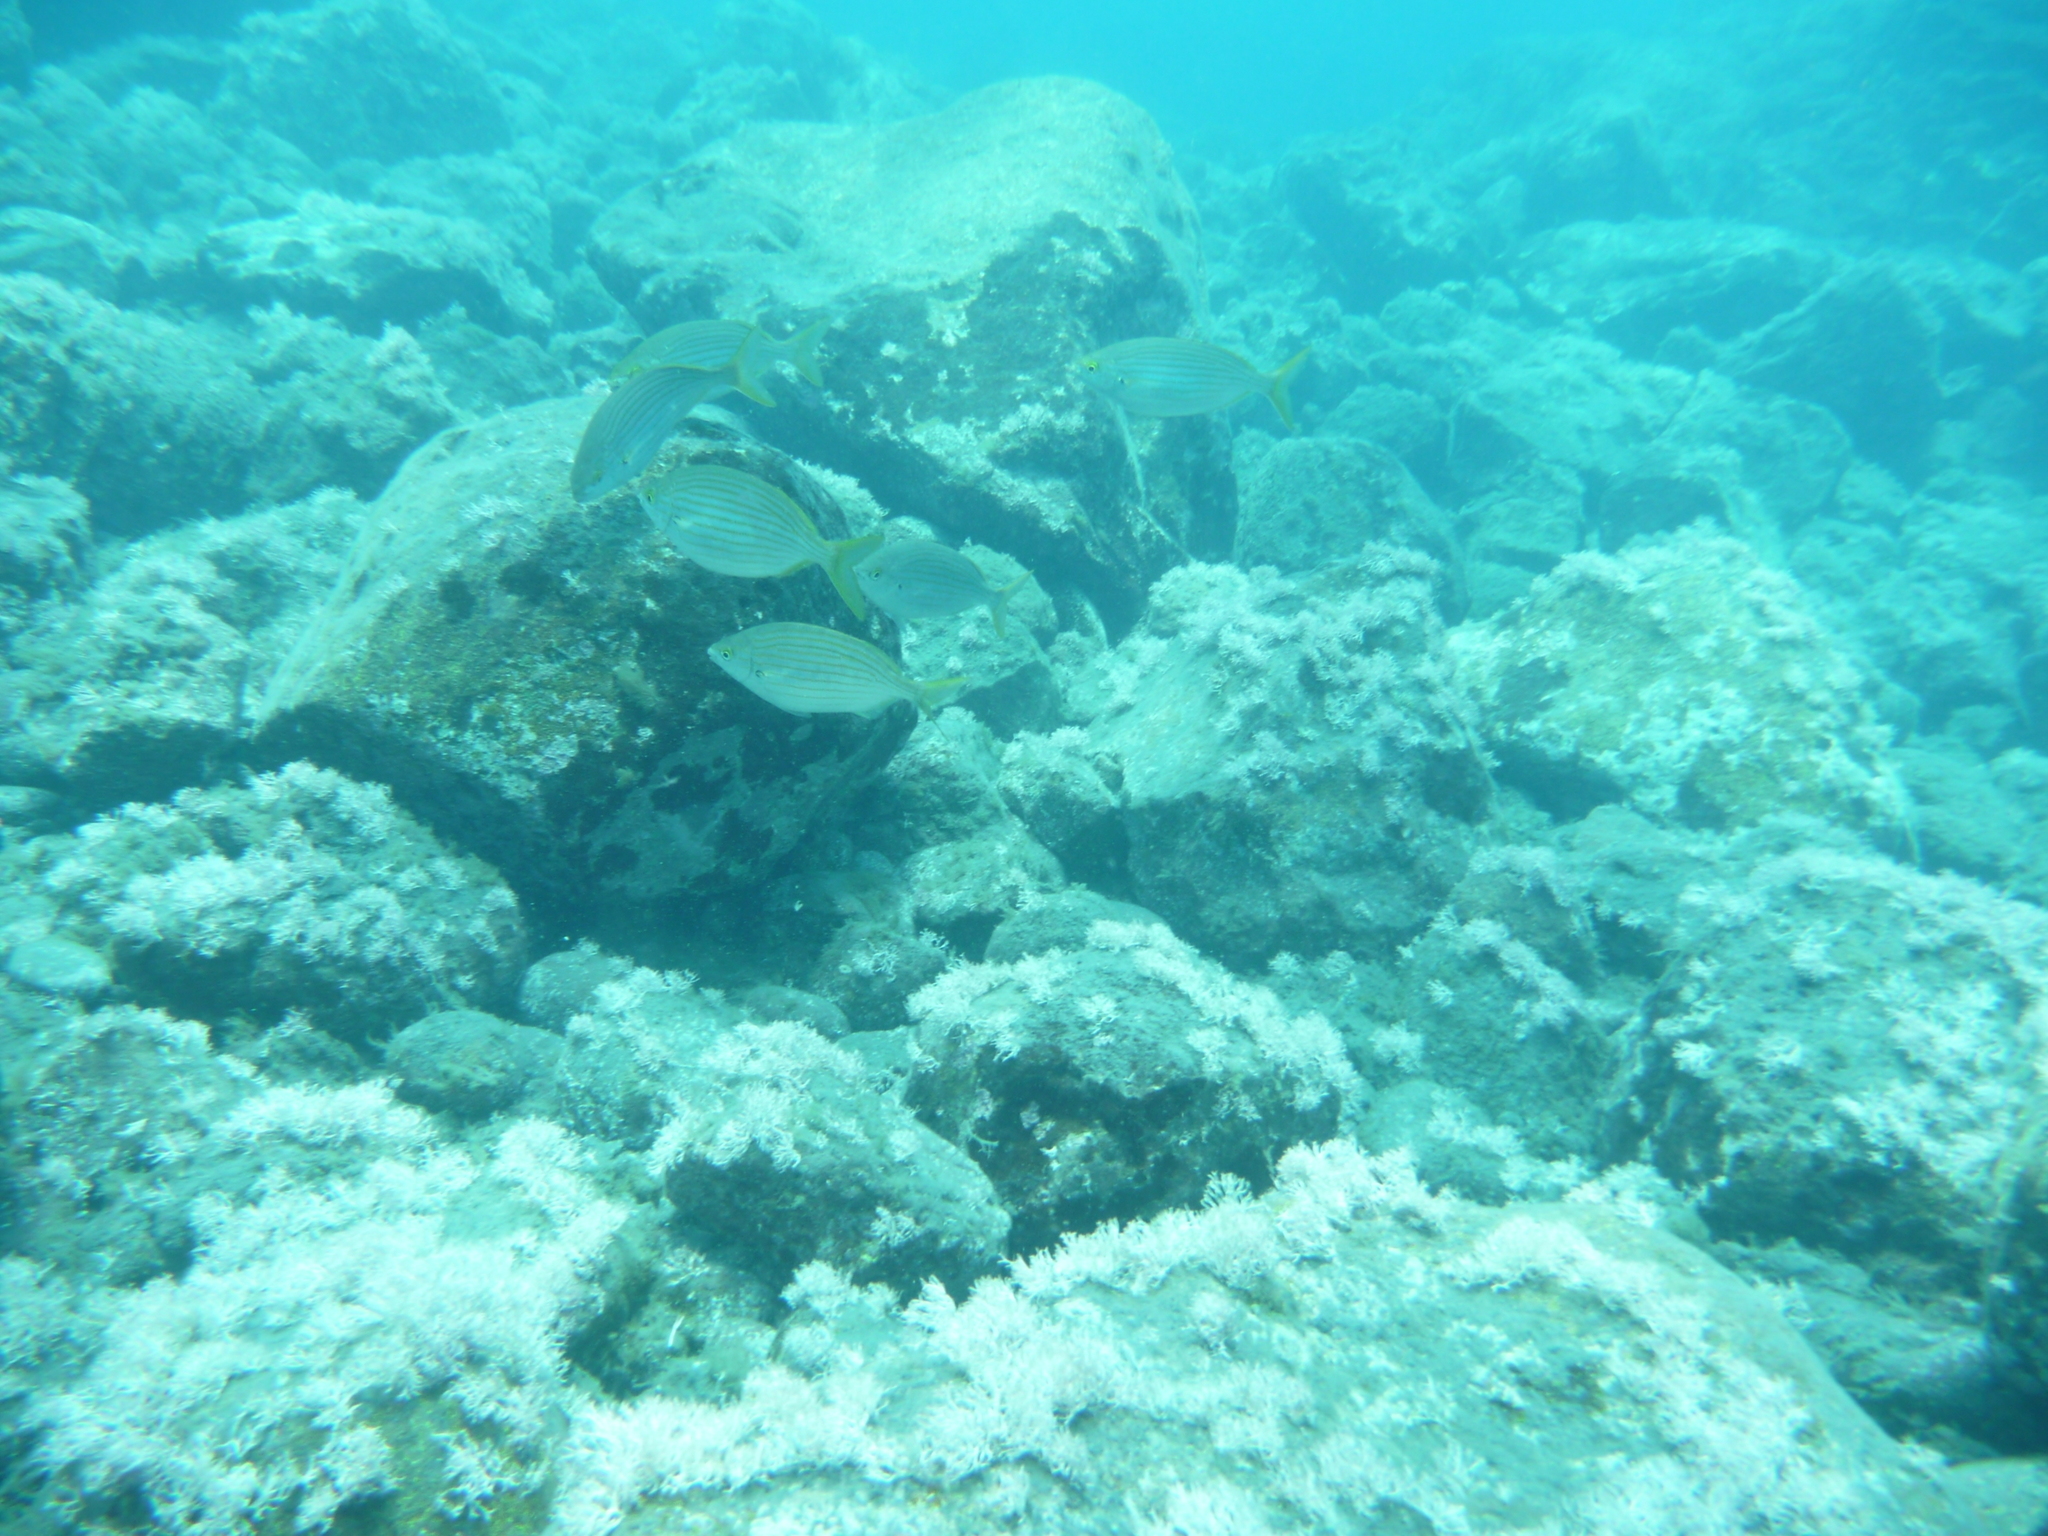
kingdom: Animalia
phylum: Chordata
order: Perciformes
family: Sparidae
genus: Sarpa
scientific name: Sarpa salpa
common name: Salema
